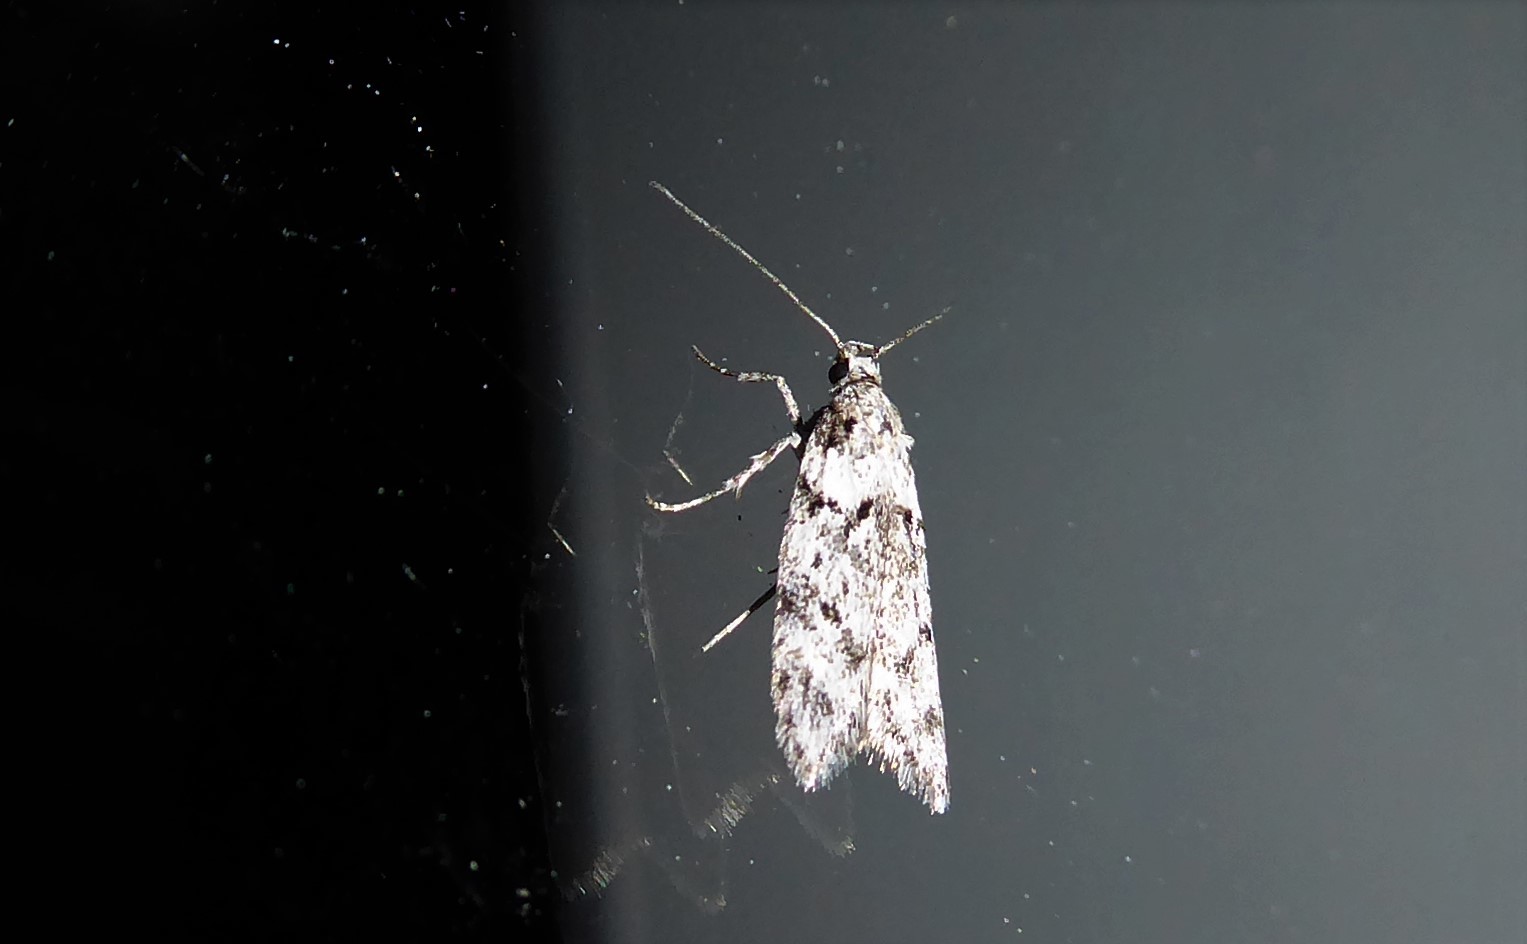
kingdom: Animalia
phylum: Arthropoda
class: Insecta
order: Lepidoptera
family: Oecophoridae
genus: Izatha
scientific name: Izatha convulsella
